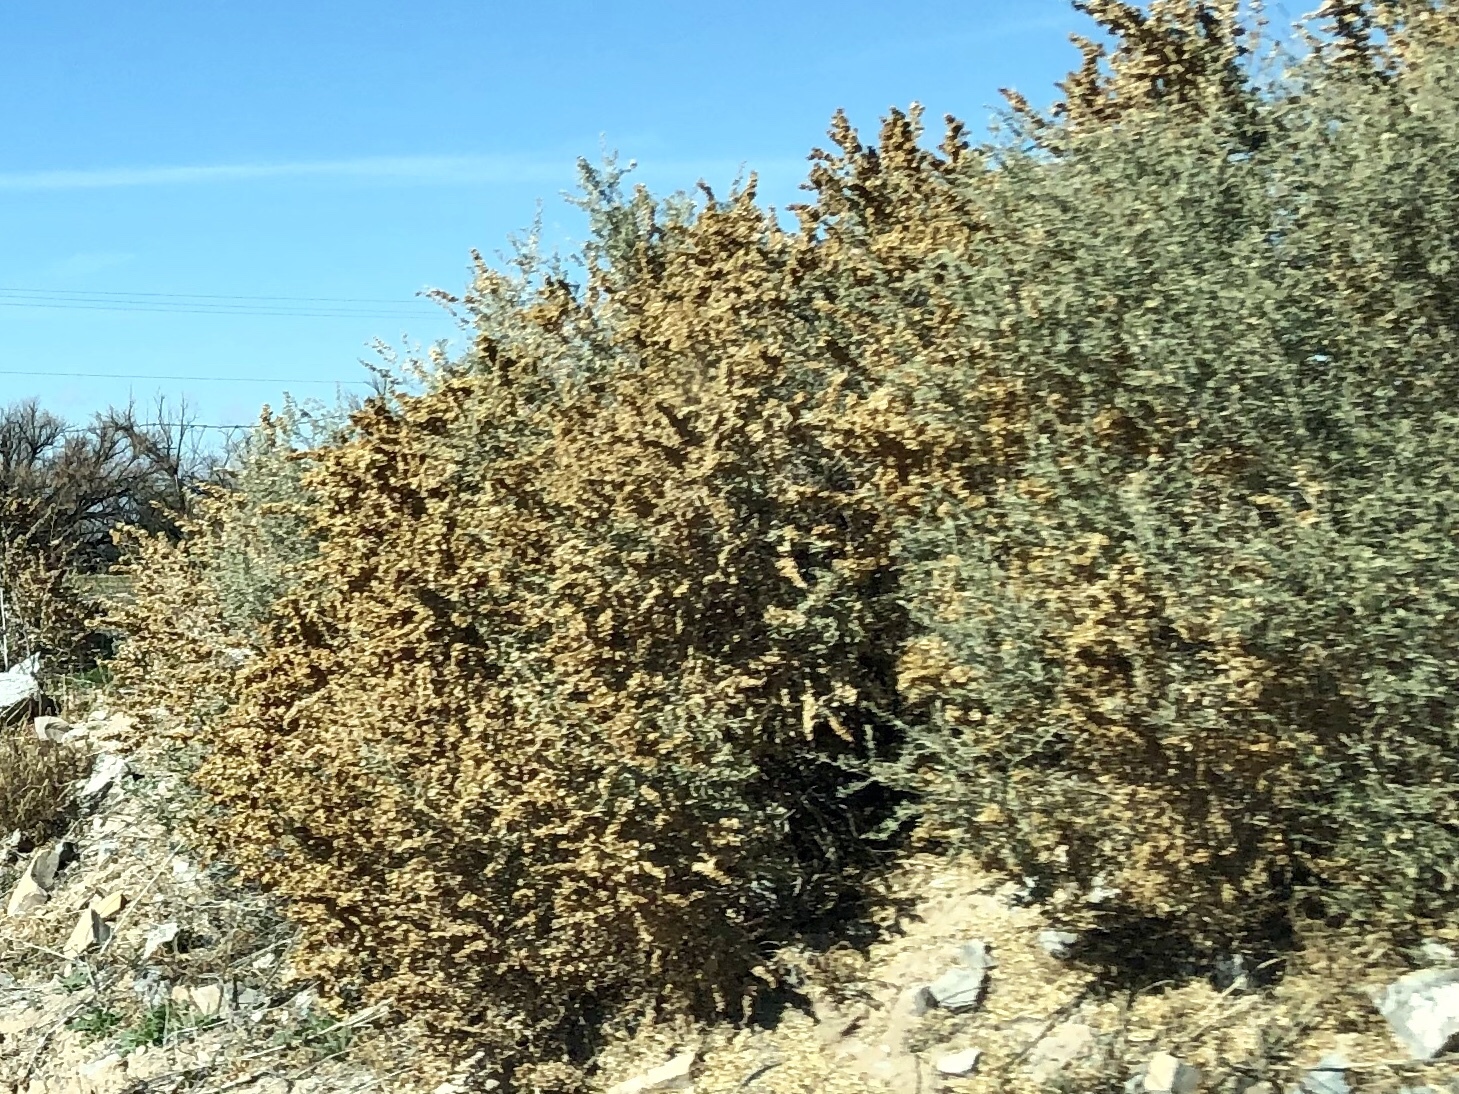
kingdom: Plantae
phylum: Tracheophyta
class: Magnoliopsida
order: Caryophyllales
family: Amaranthaceae
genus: Atriplex
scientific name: Atriplex canescens
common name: Four-wing saltbush
